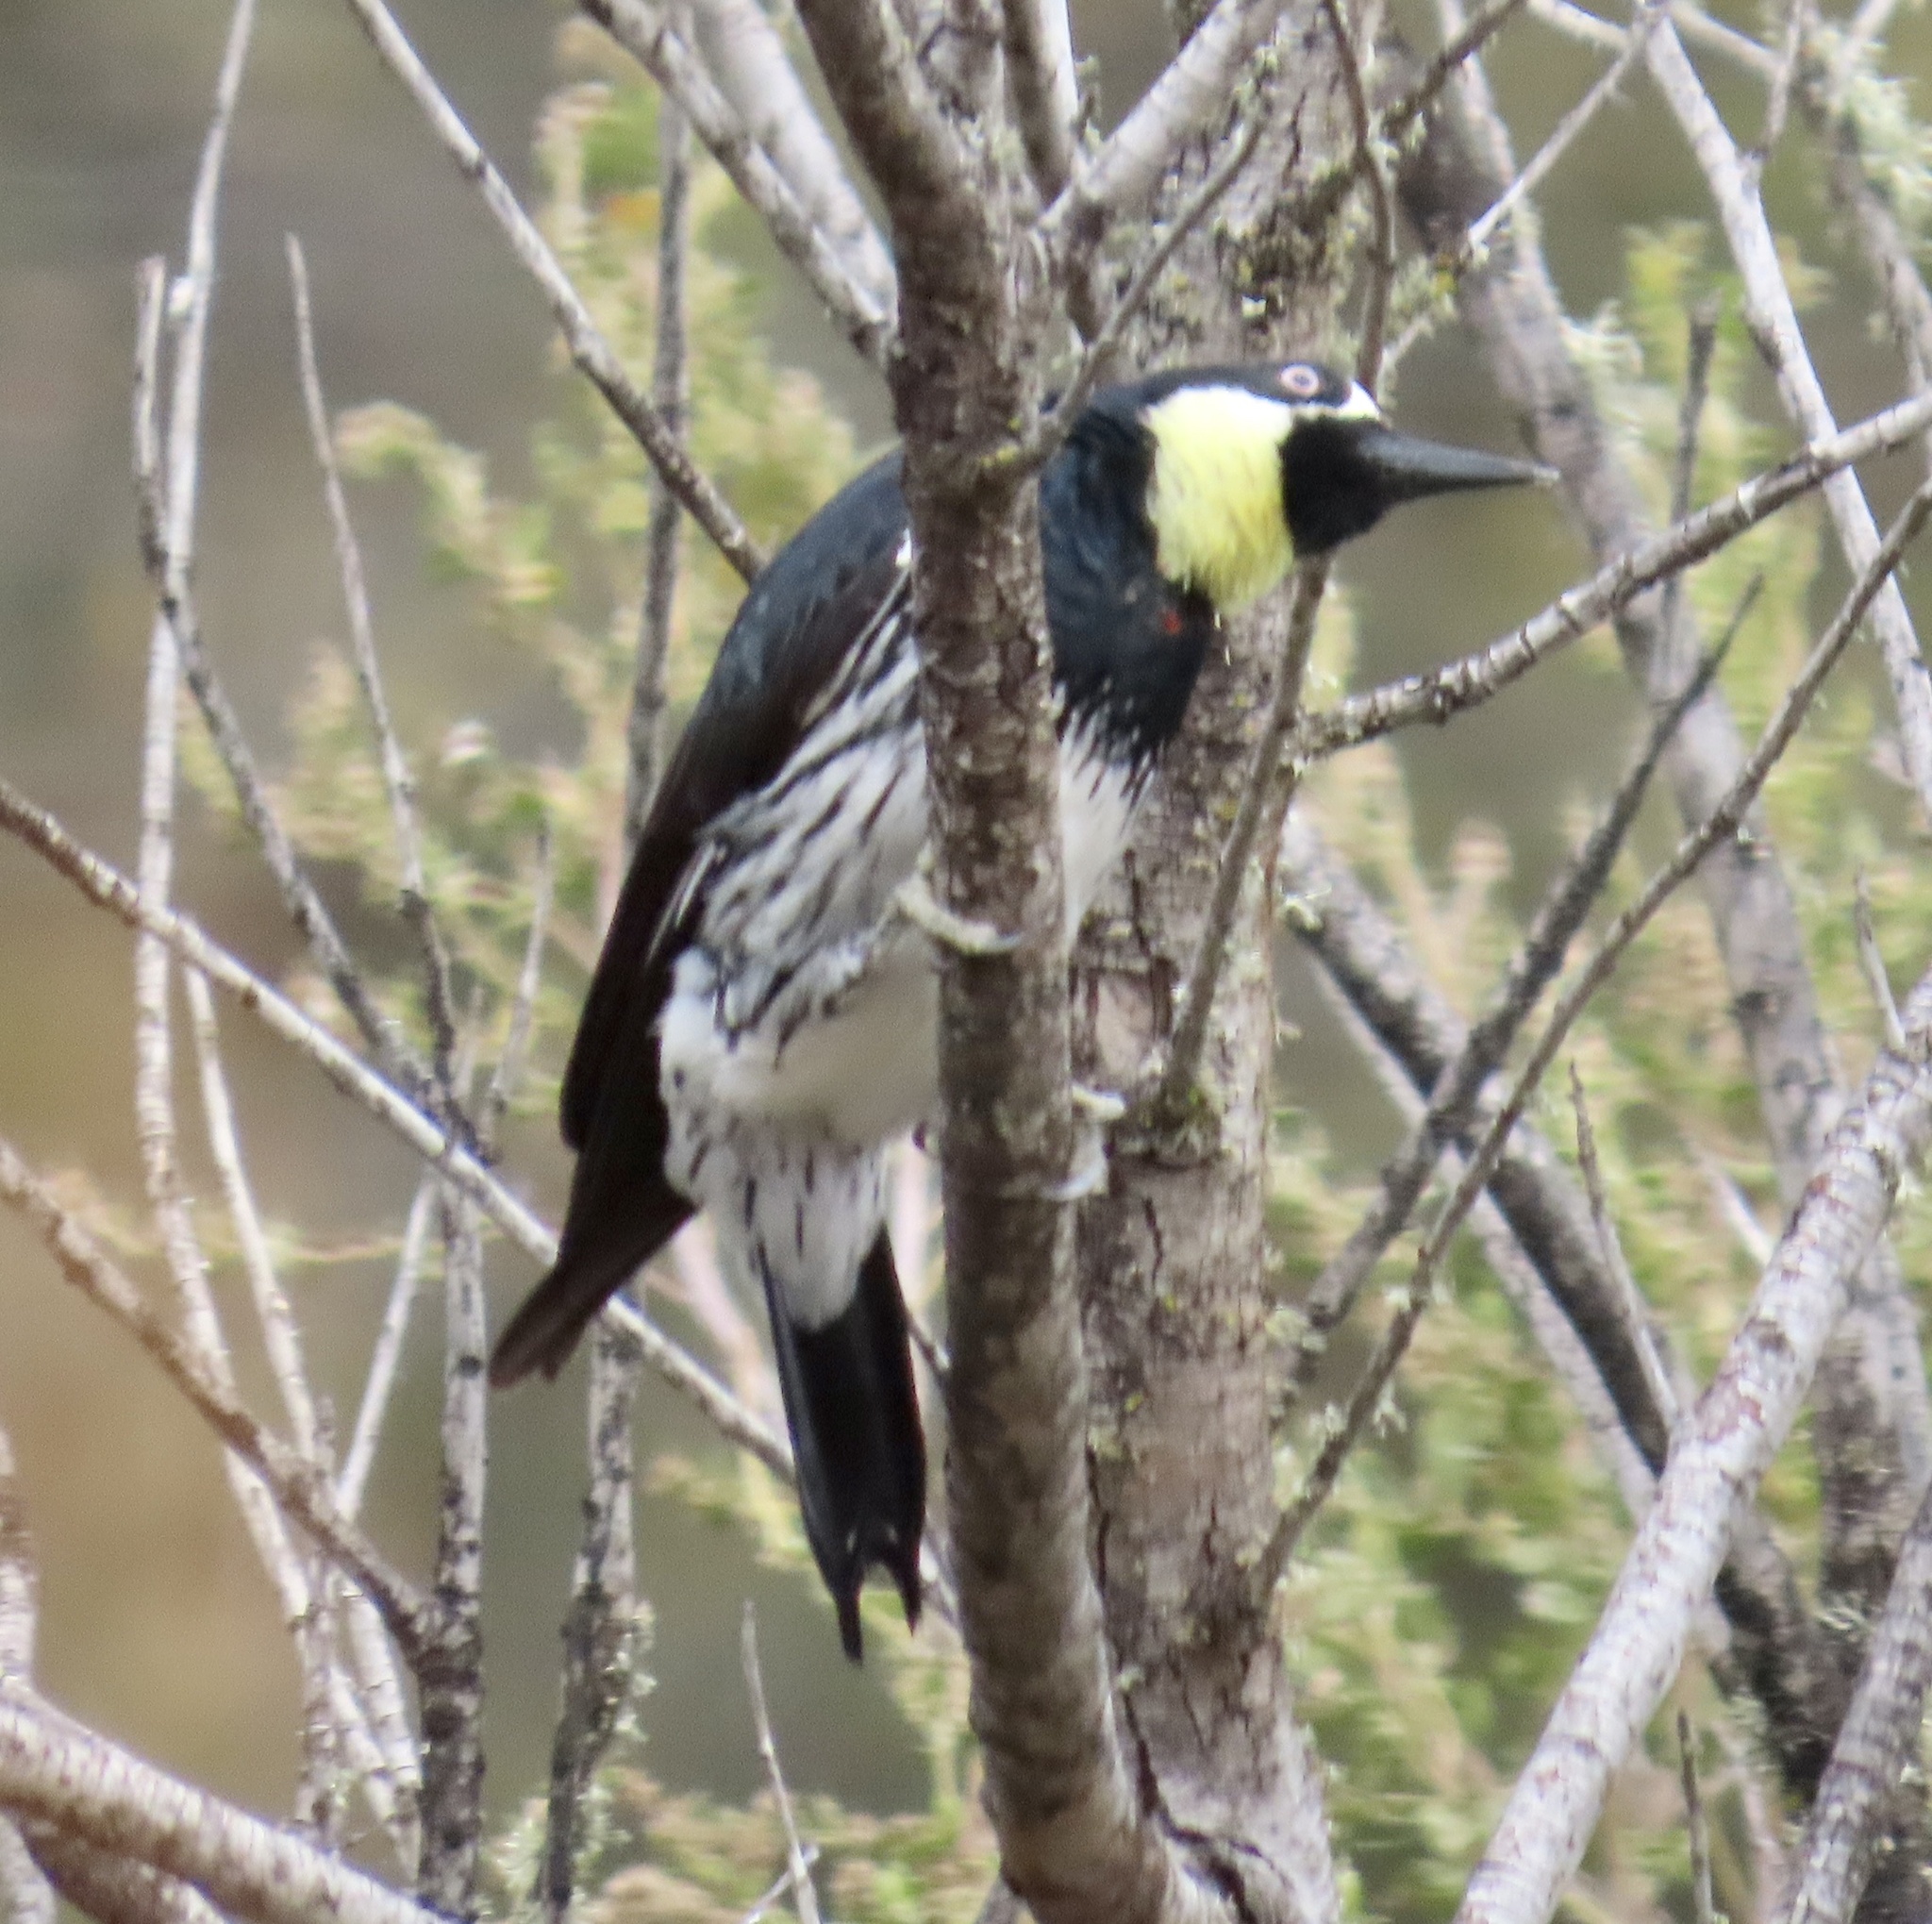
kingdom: Animalia
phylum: Chordata
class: Aves
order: Piciformes
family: Picidae
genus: Melanerpes
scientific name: Melanerpes formicivorus
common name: Acorn woodpecker
